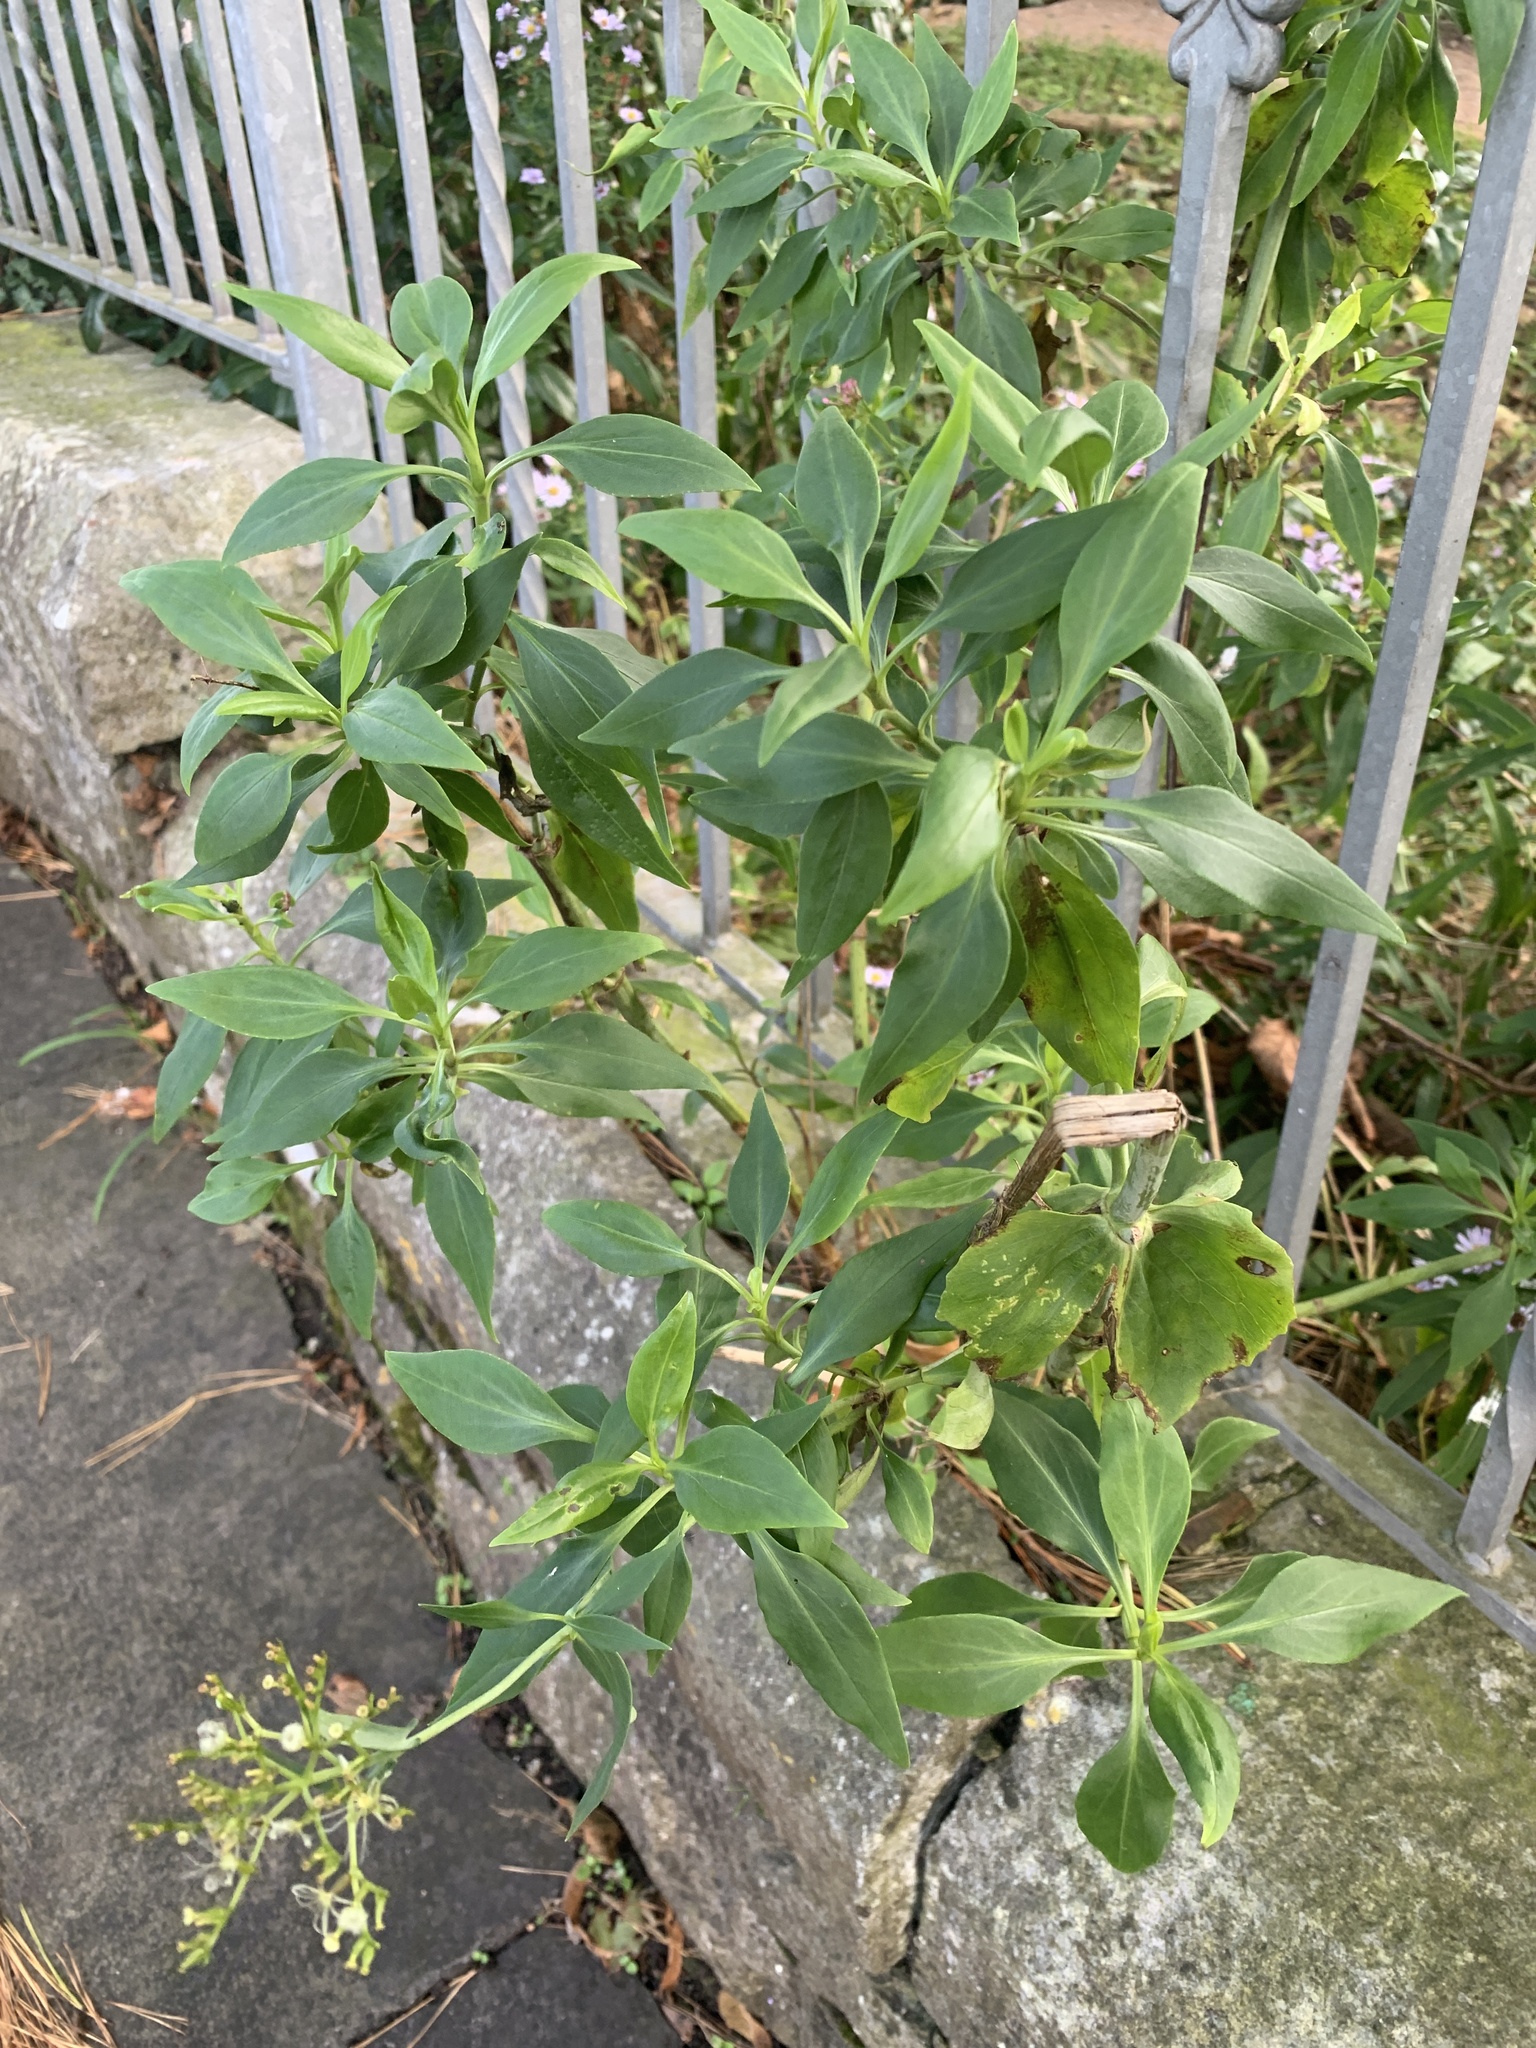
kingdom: Plantae
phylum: Tracheophyta
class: Magnoliopsida
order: Dipsacales
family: Caprifoliaceae
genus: Centranthus
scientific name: Centranthus ruber
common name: Red valerian
